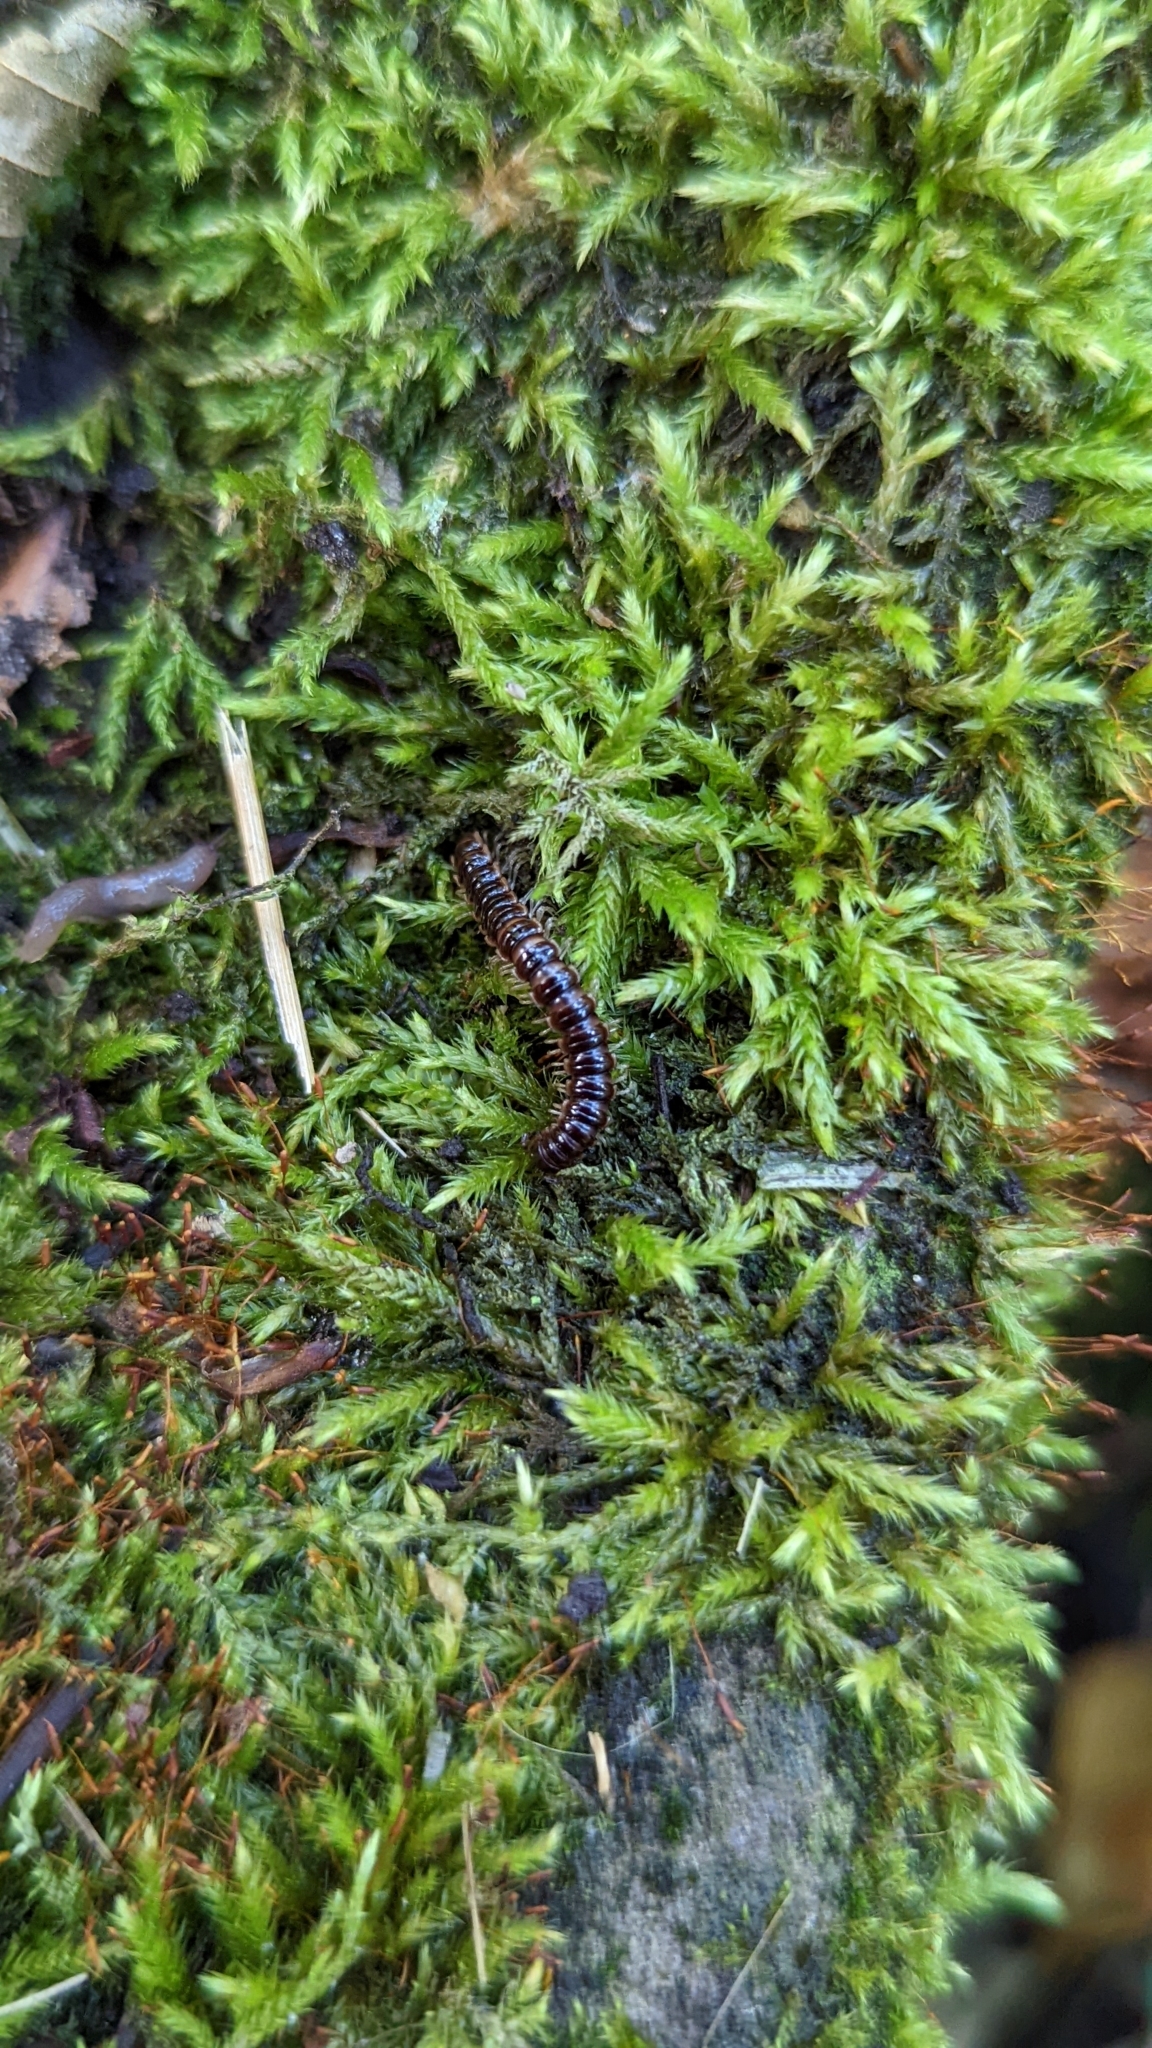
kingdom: Animalia
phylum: Arthropoda
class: Diplopoda
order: Polydesmida
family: Paradoxosomatidae
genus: Oxidus
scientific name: Oxidus gracilis
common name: Greenhouse millipede
